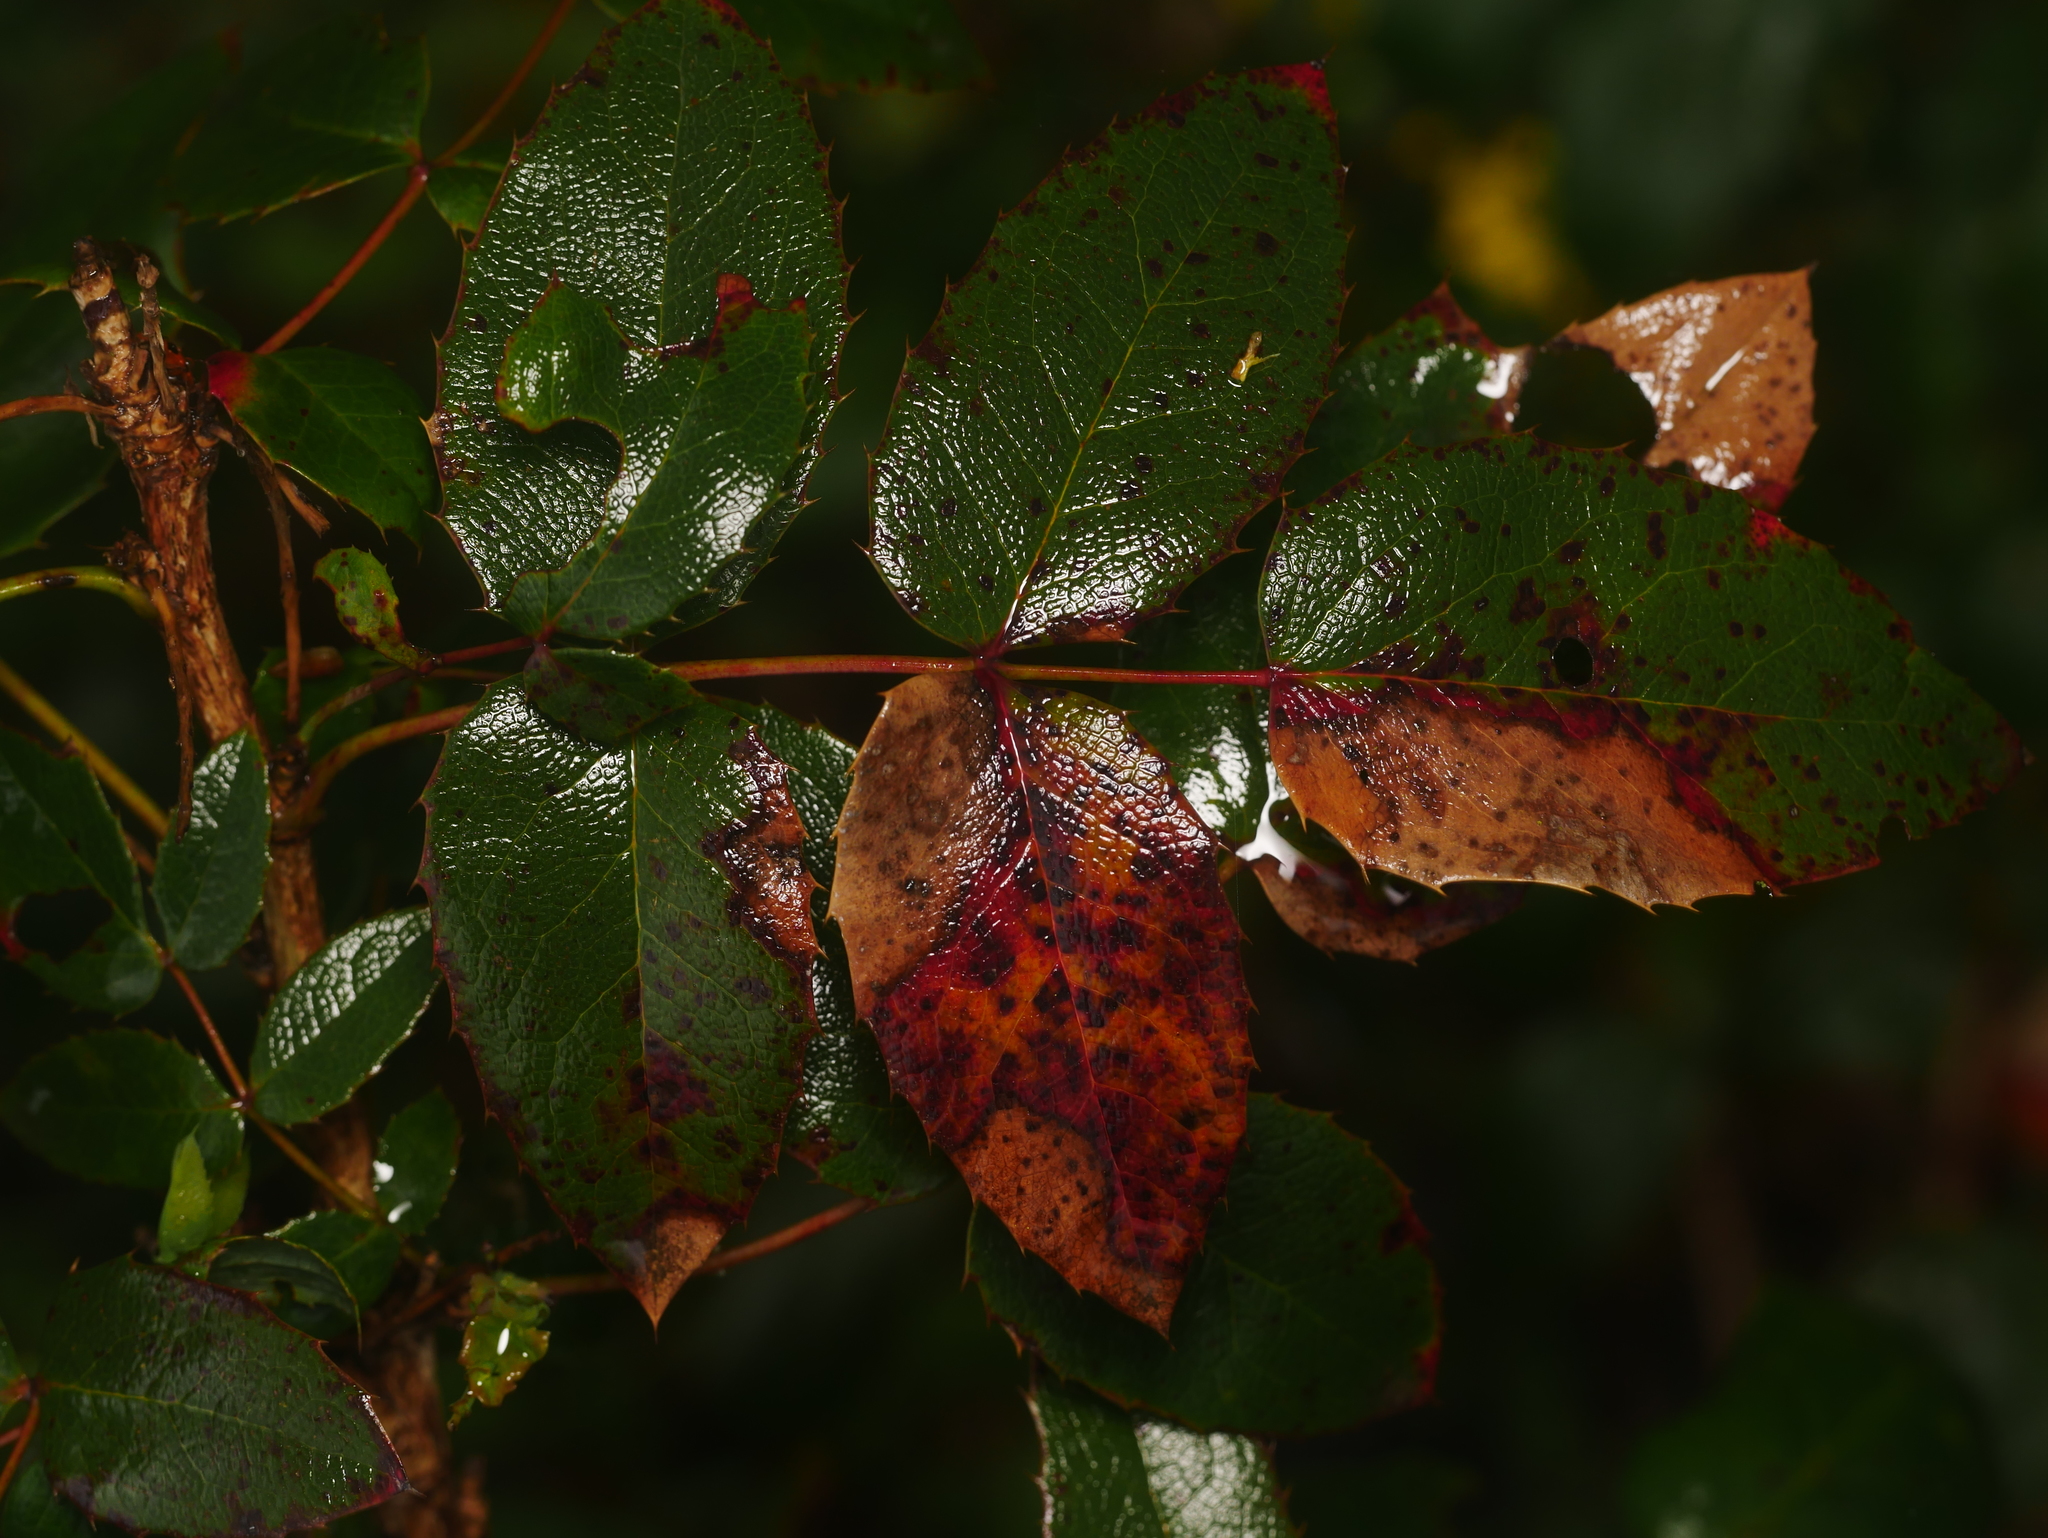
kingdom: Plantae
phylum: Tracheophyta
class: Magnoliopsida
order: Ranunculales
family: Berberidaceae
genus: Mahonia
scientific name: Mahonia aquifolium
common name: Oregon-grape
